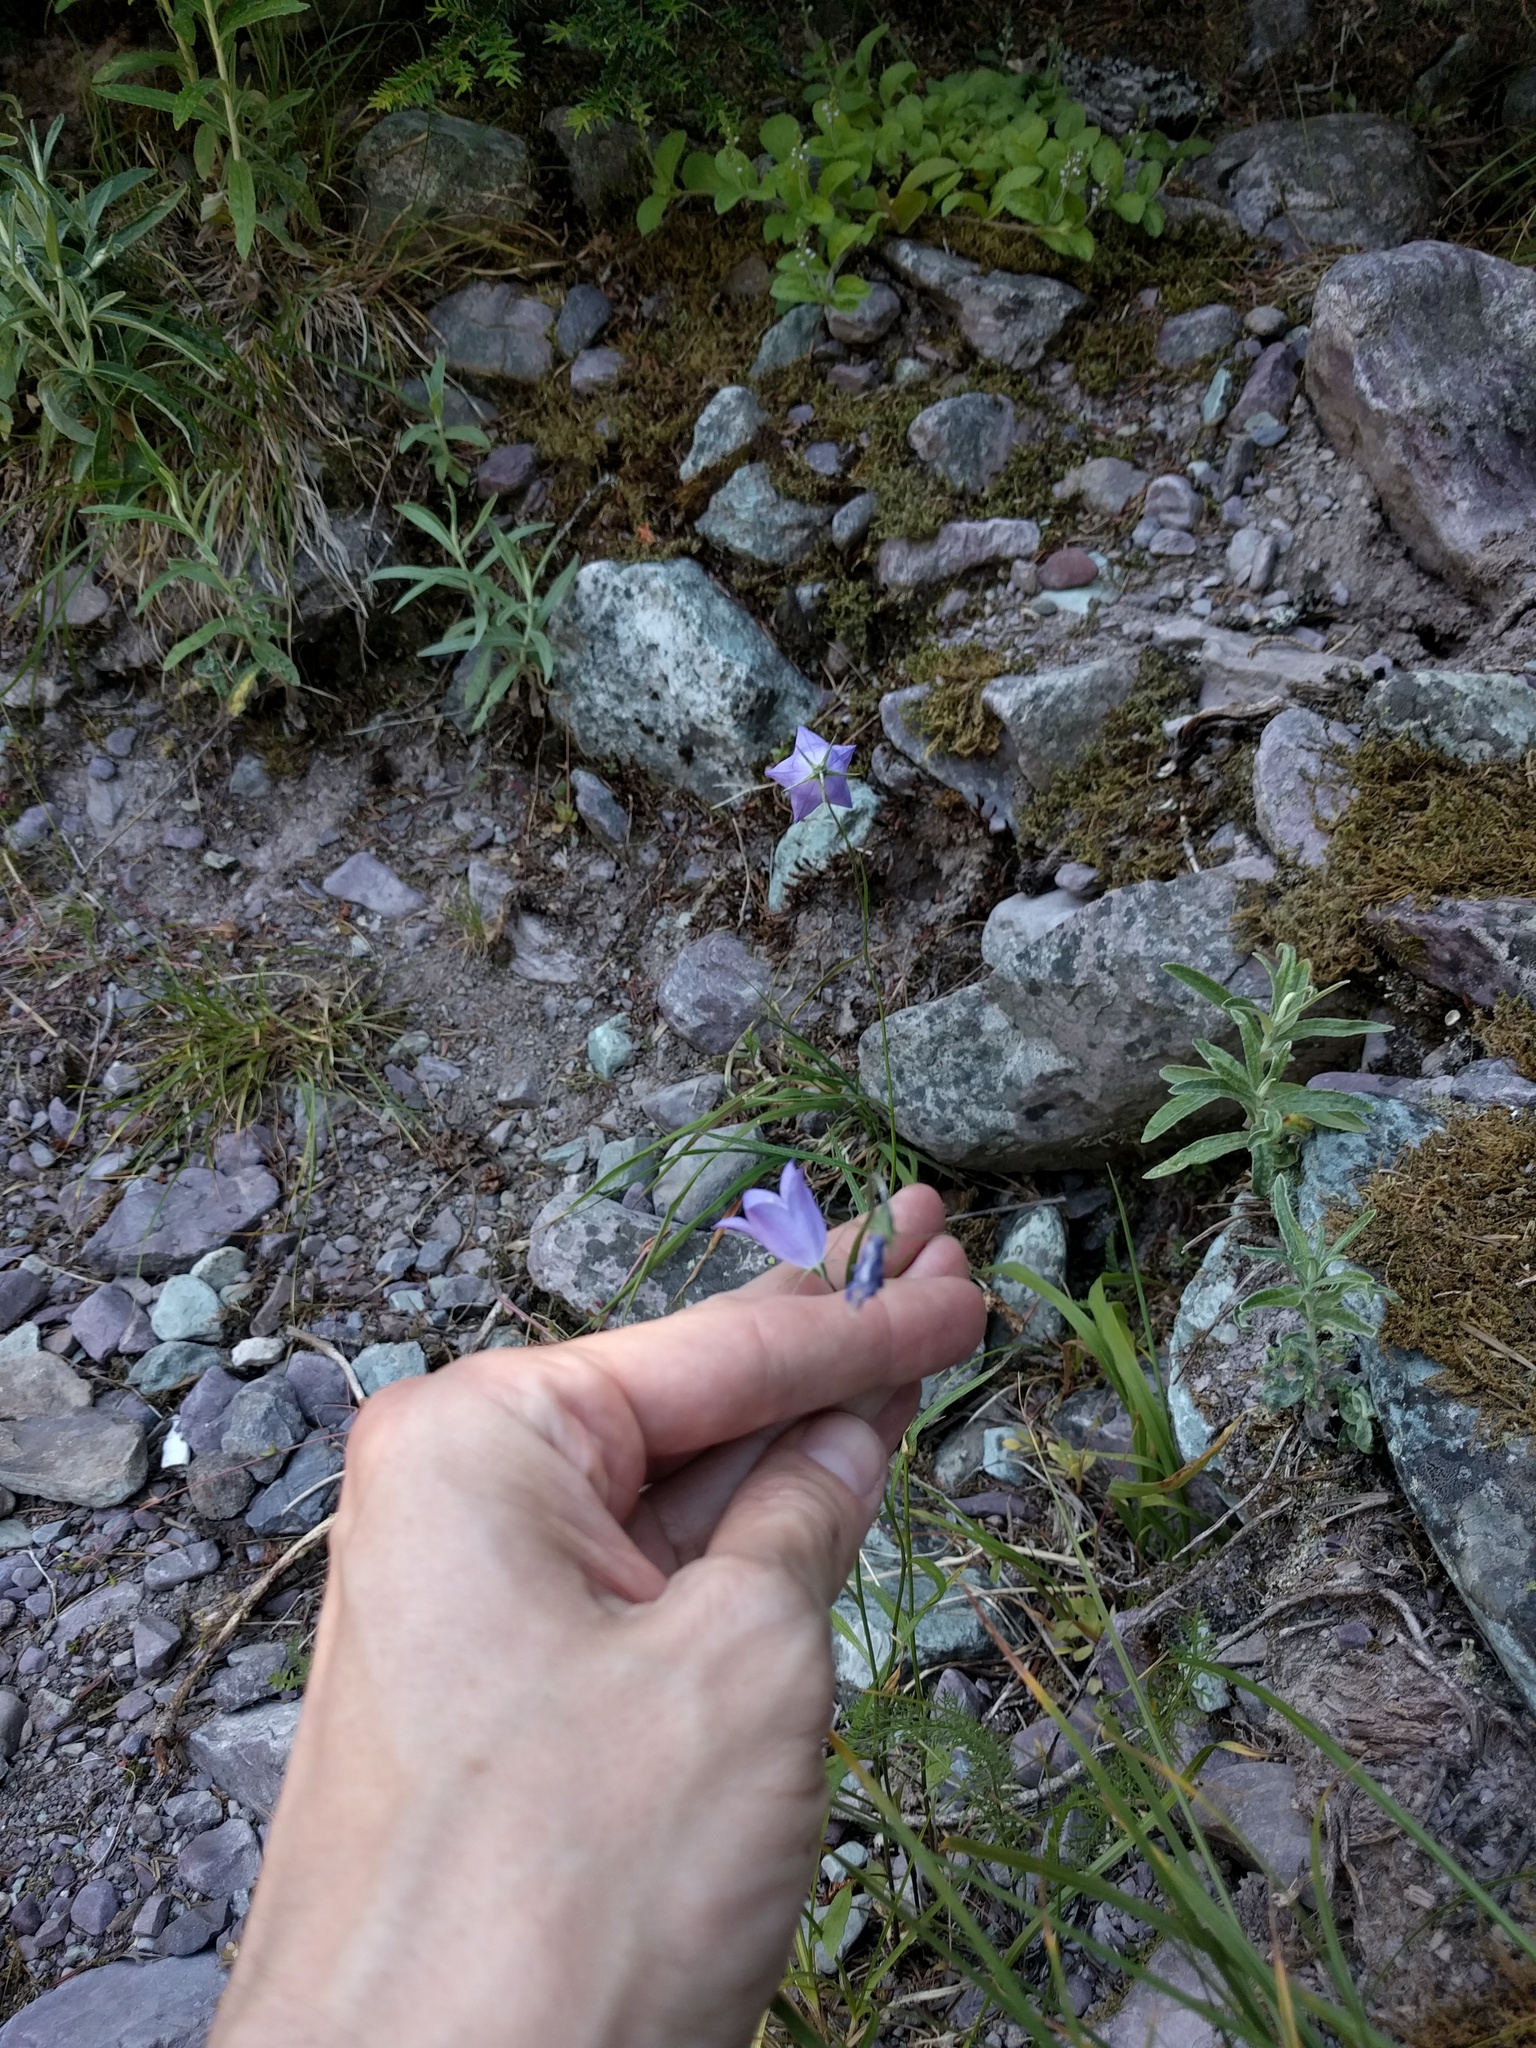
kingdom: Plantae
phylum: Tracheophyta
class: Magnoliopsida
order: Asterales
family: Campanulaceae
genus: Campanula
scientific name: Campanula petiolata
